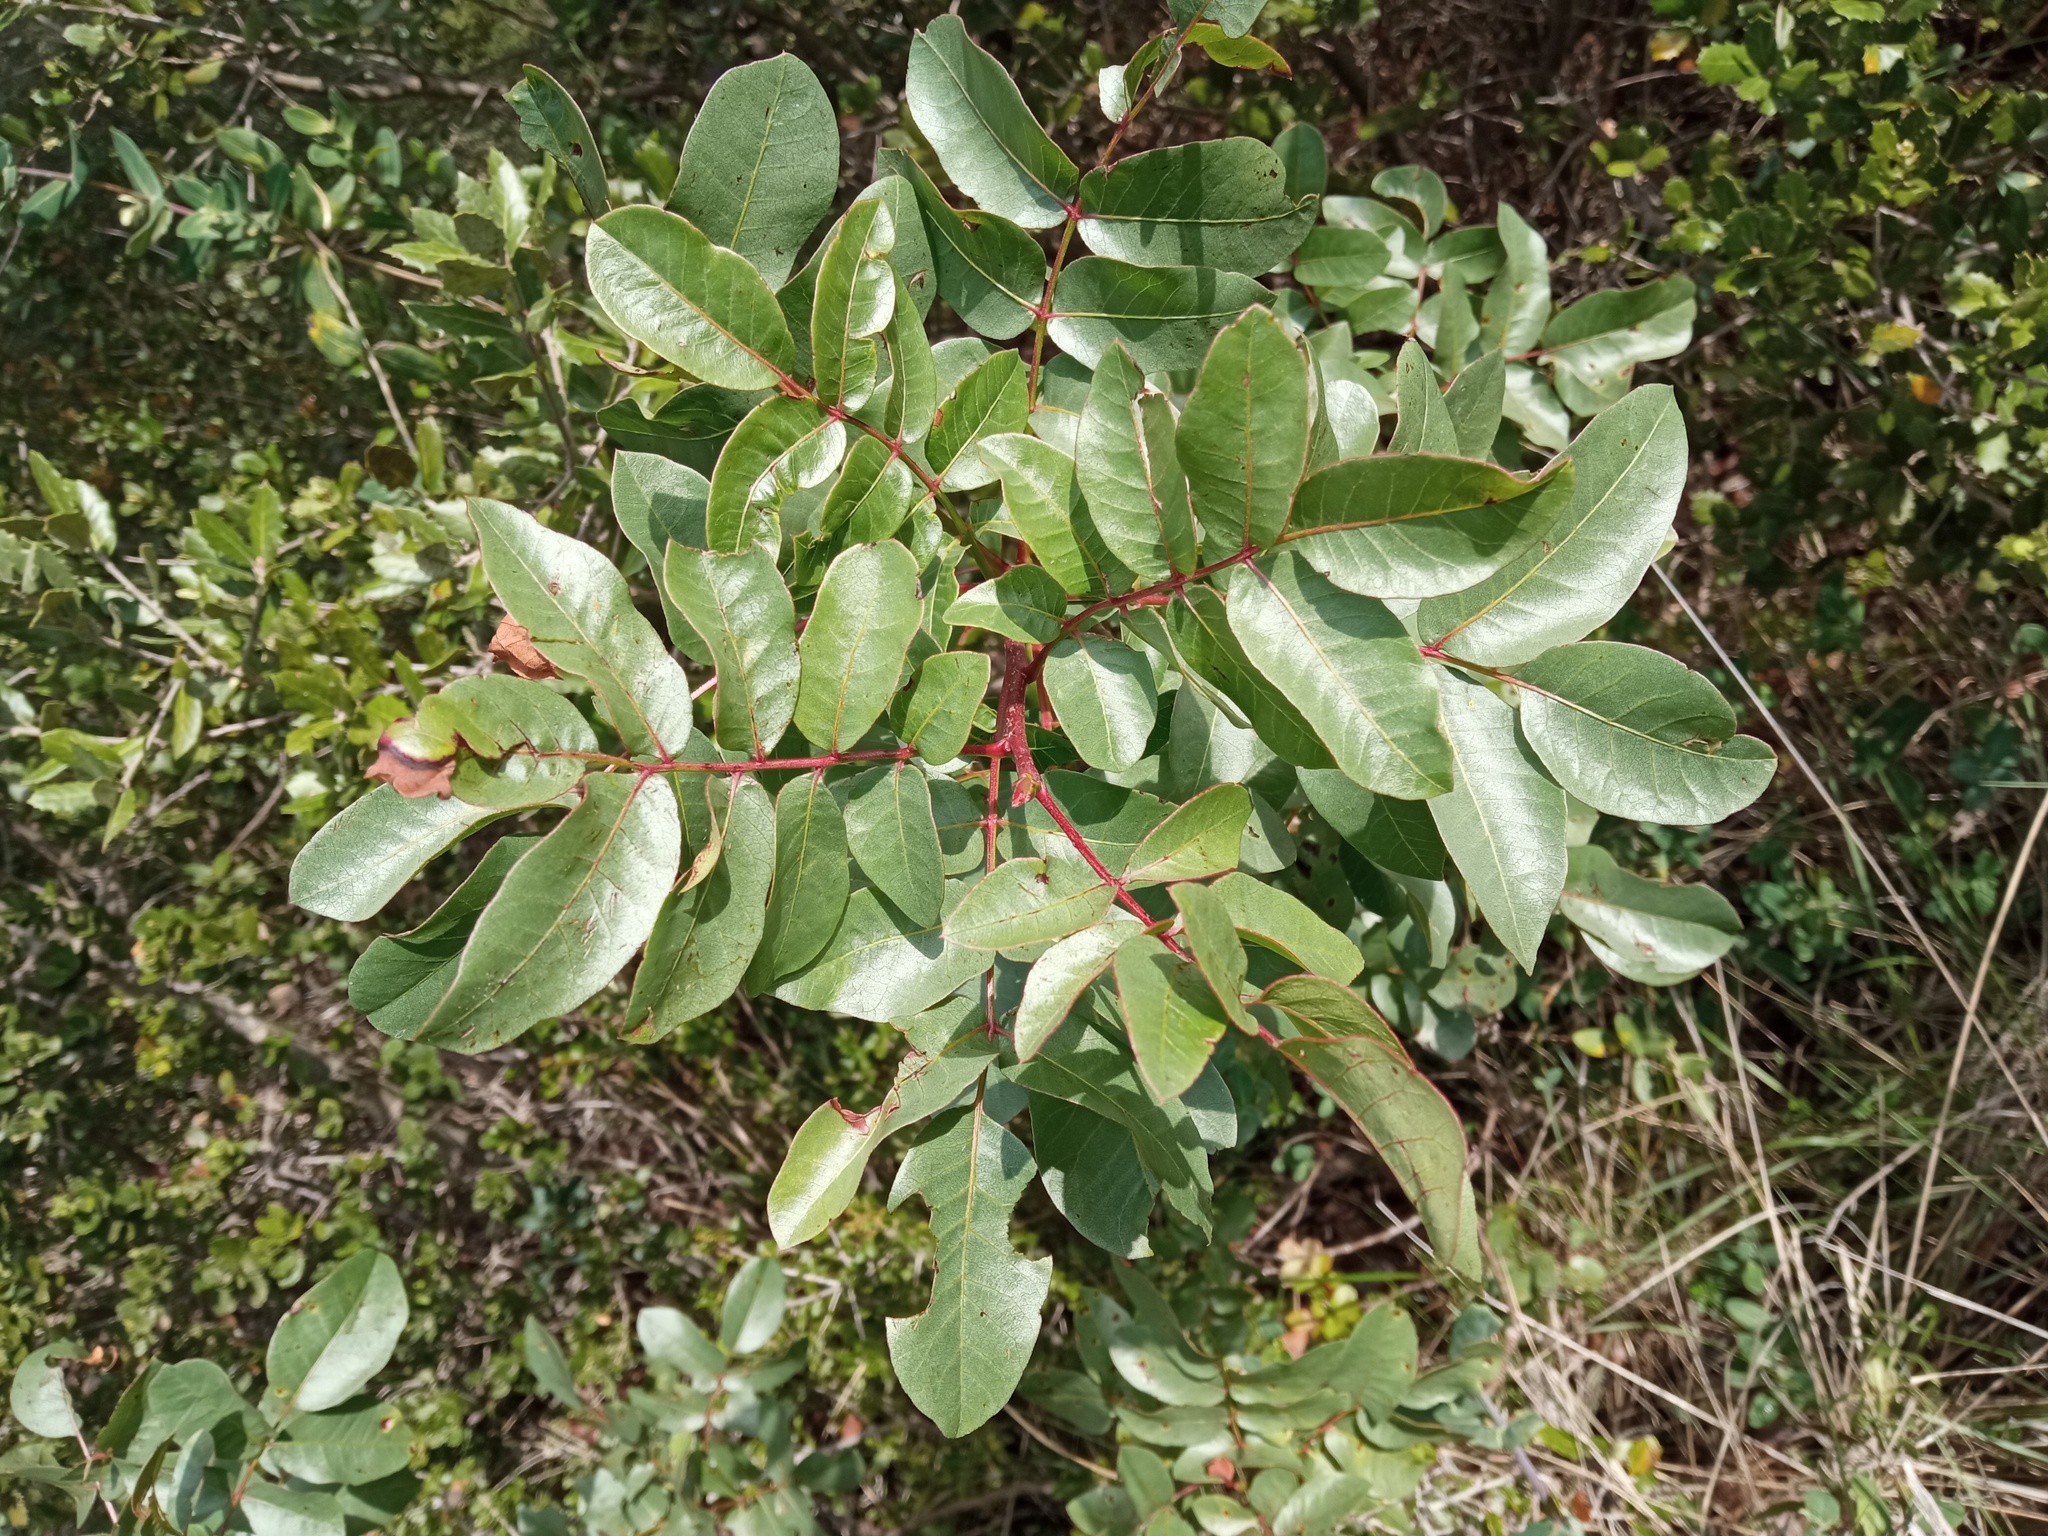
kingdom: Plantae
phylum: Tracheophyta
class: Magnoliopsida
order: Sapindales
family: Anacardiaceae
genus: Pistacia
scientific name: Pistacia terebinthus
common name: Terebinth
